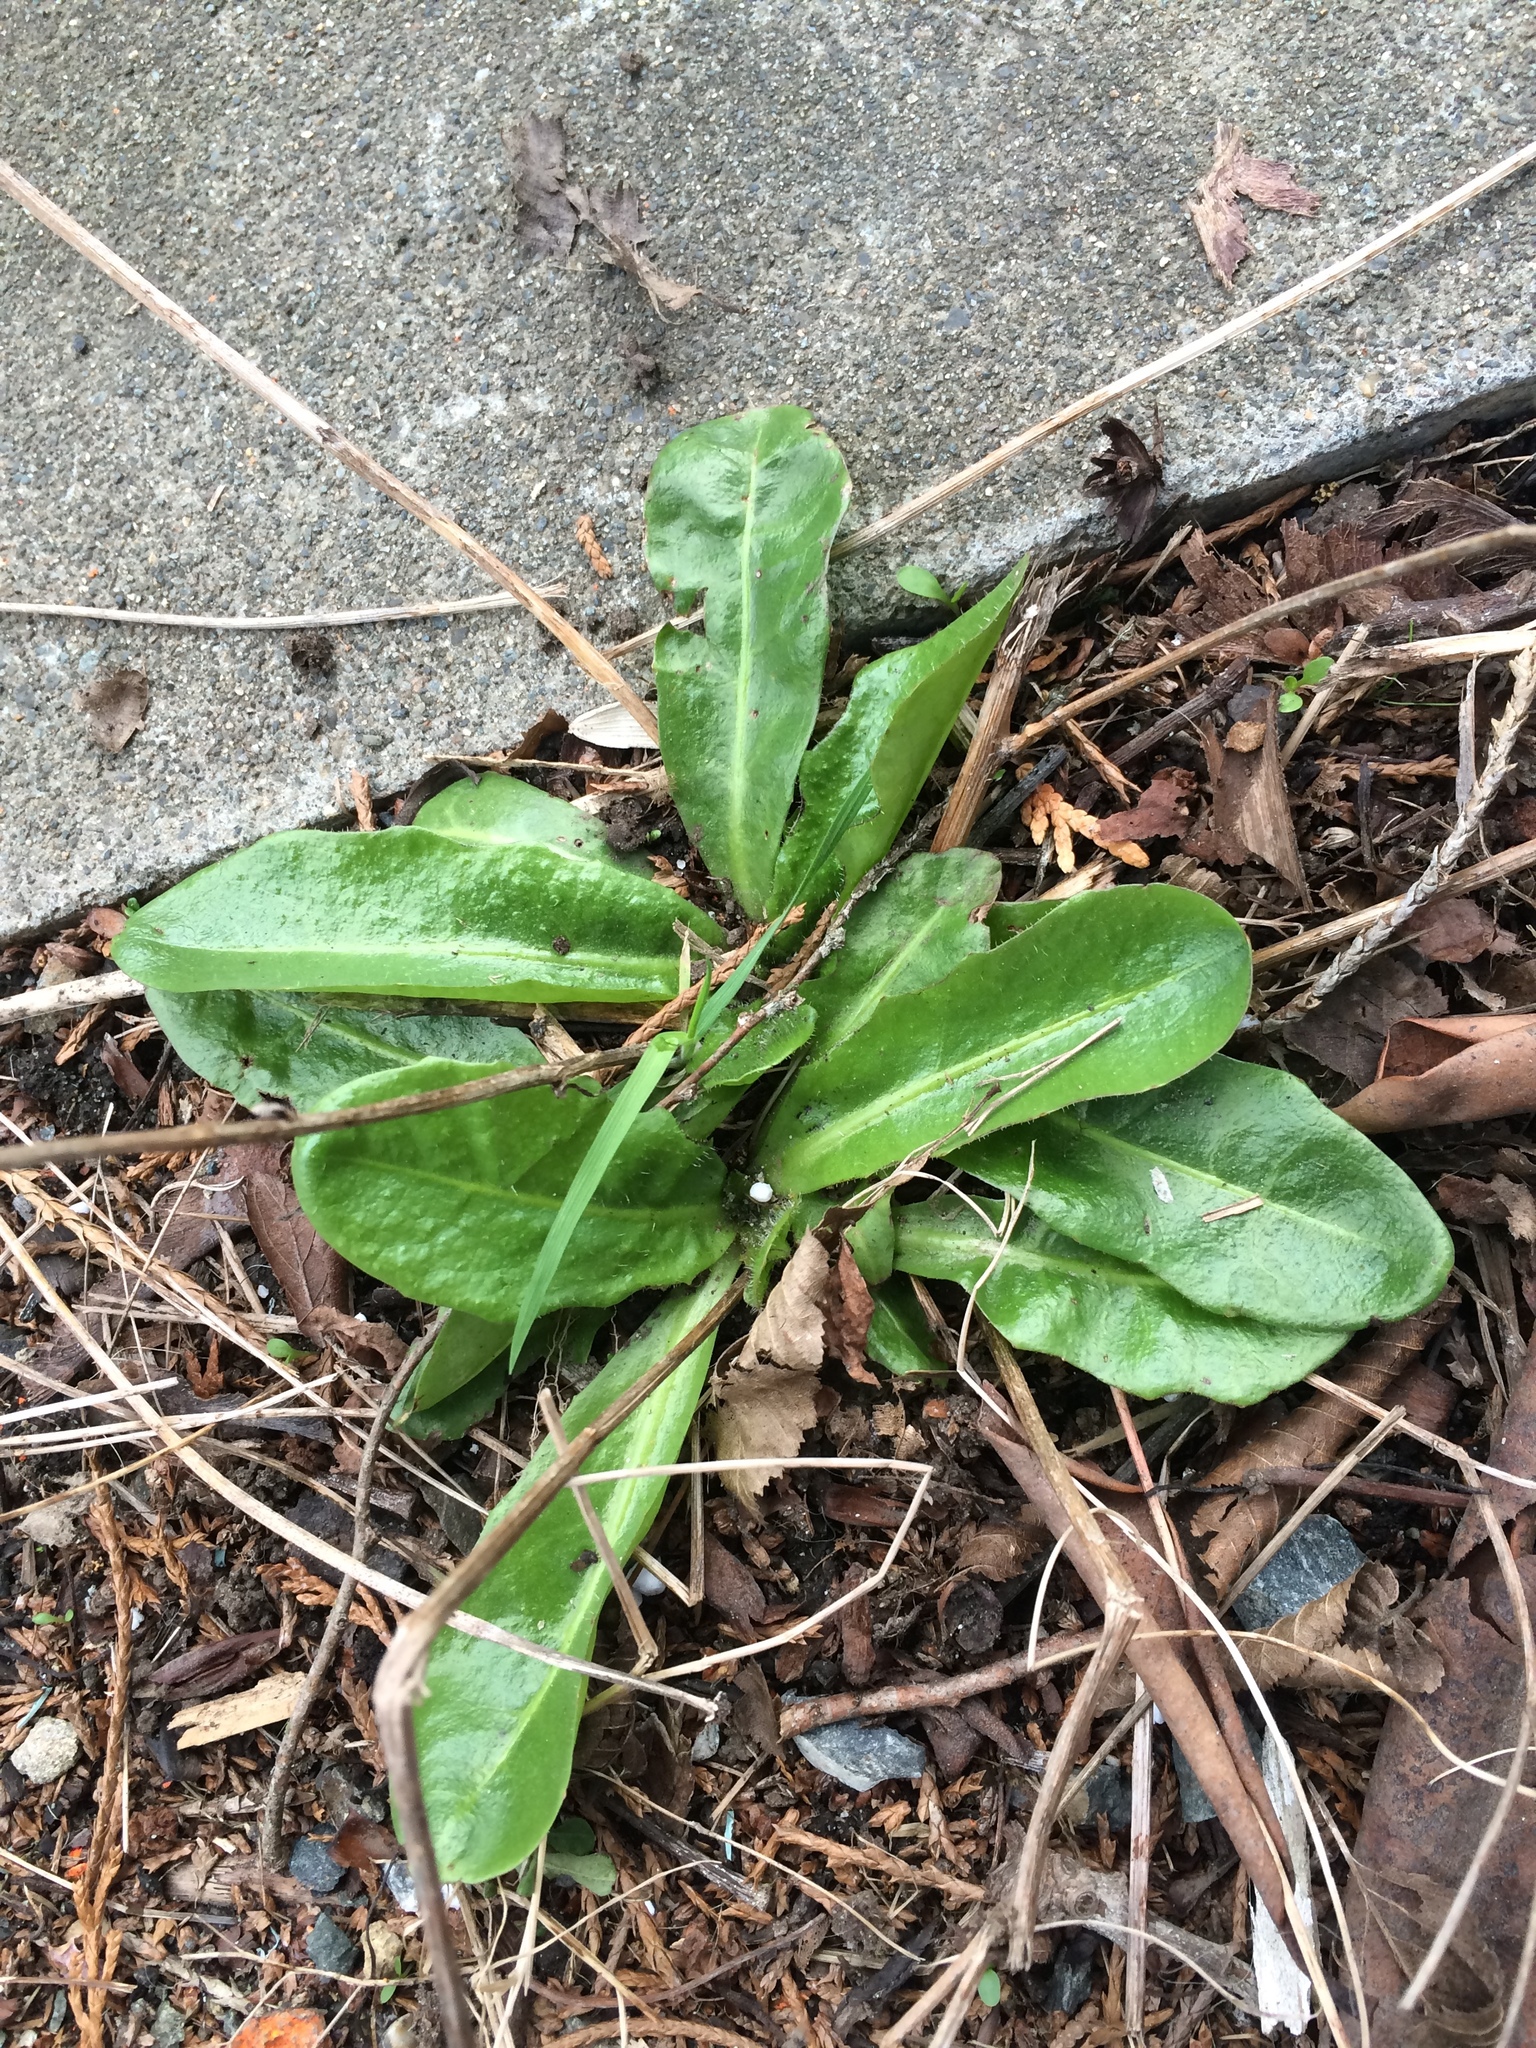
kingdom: Plantae
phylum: Tracheophyta
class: Magnoliopsida
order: Asterales
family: Asteraceae
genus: Hypochaeris
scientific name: Hypochaeris radicata
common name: Flatweed
